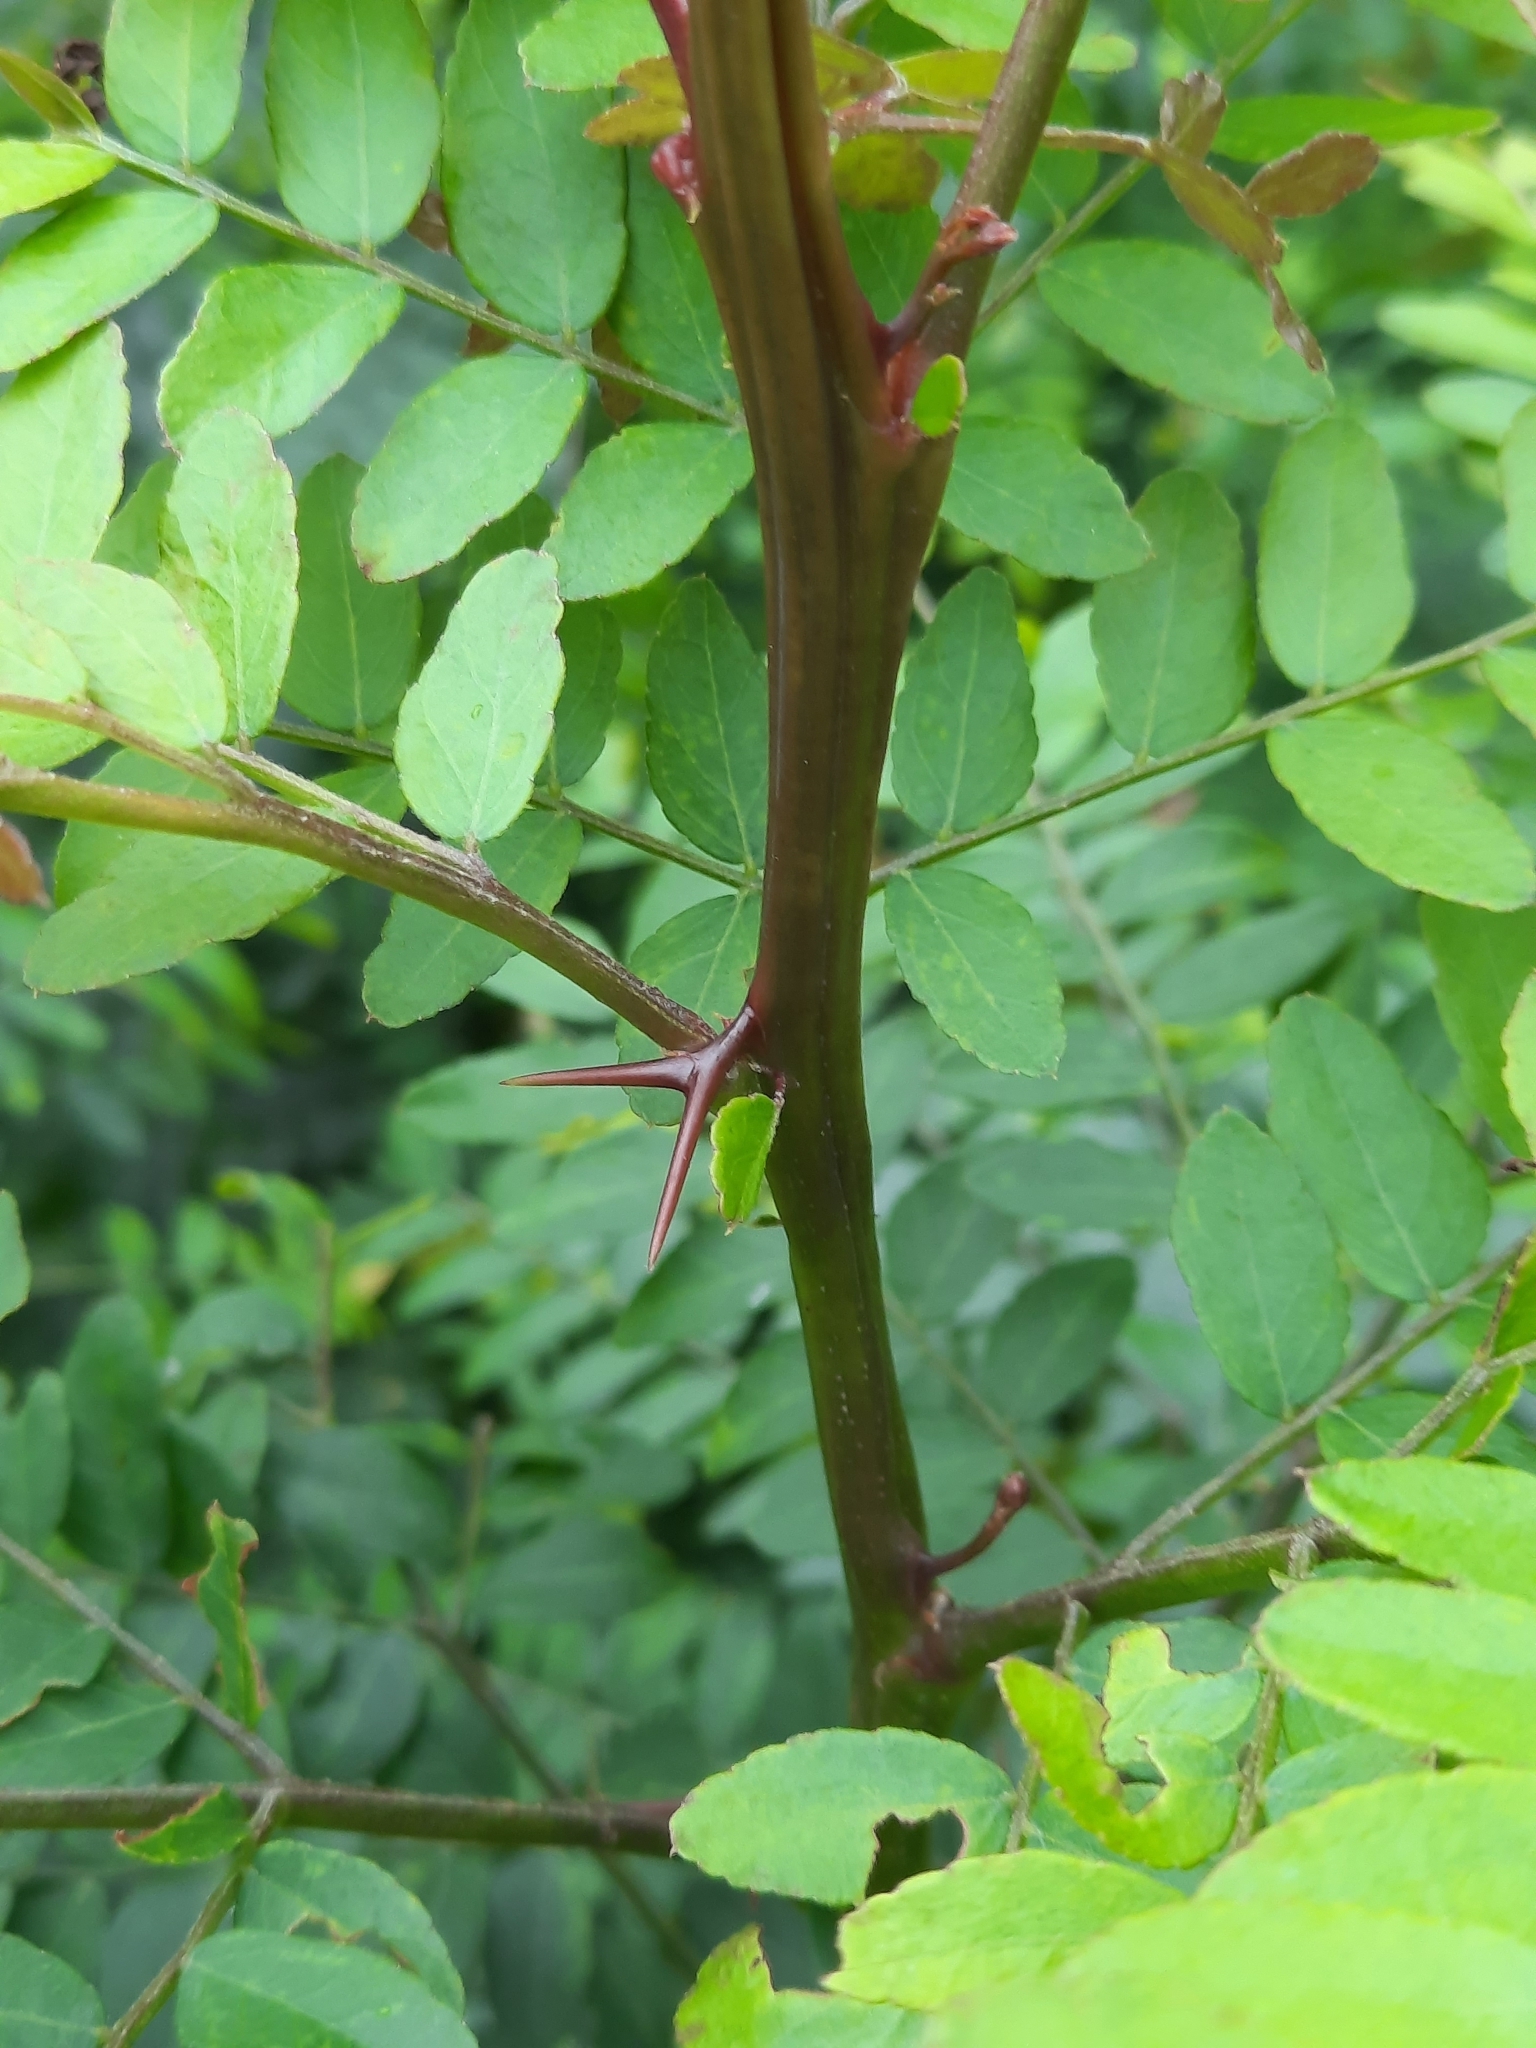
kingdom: Plantae
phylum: Tracheophyta
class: Magnoliopsida
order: Fabales
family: Fabaceae
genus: Gleditsia
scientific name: Gleditsia triacanthos
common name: Common honeylocust
